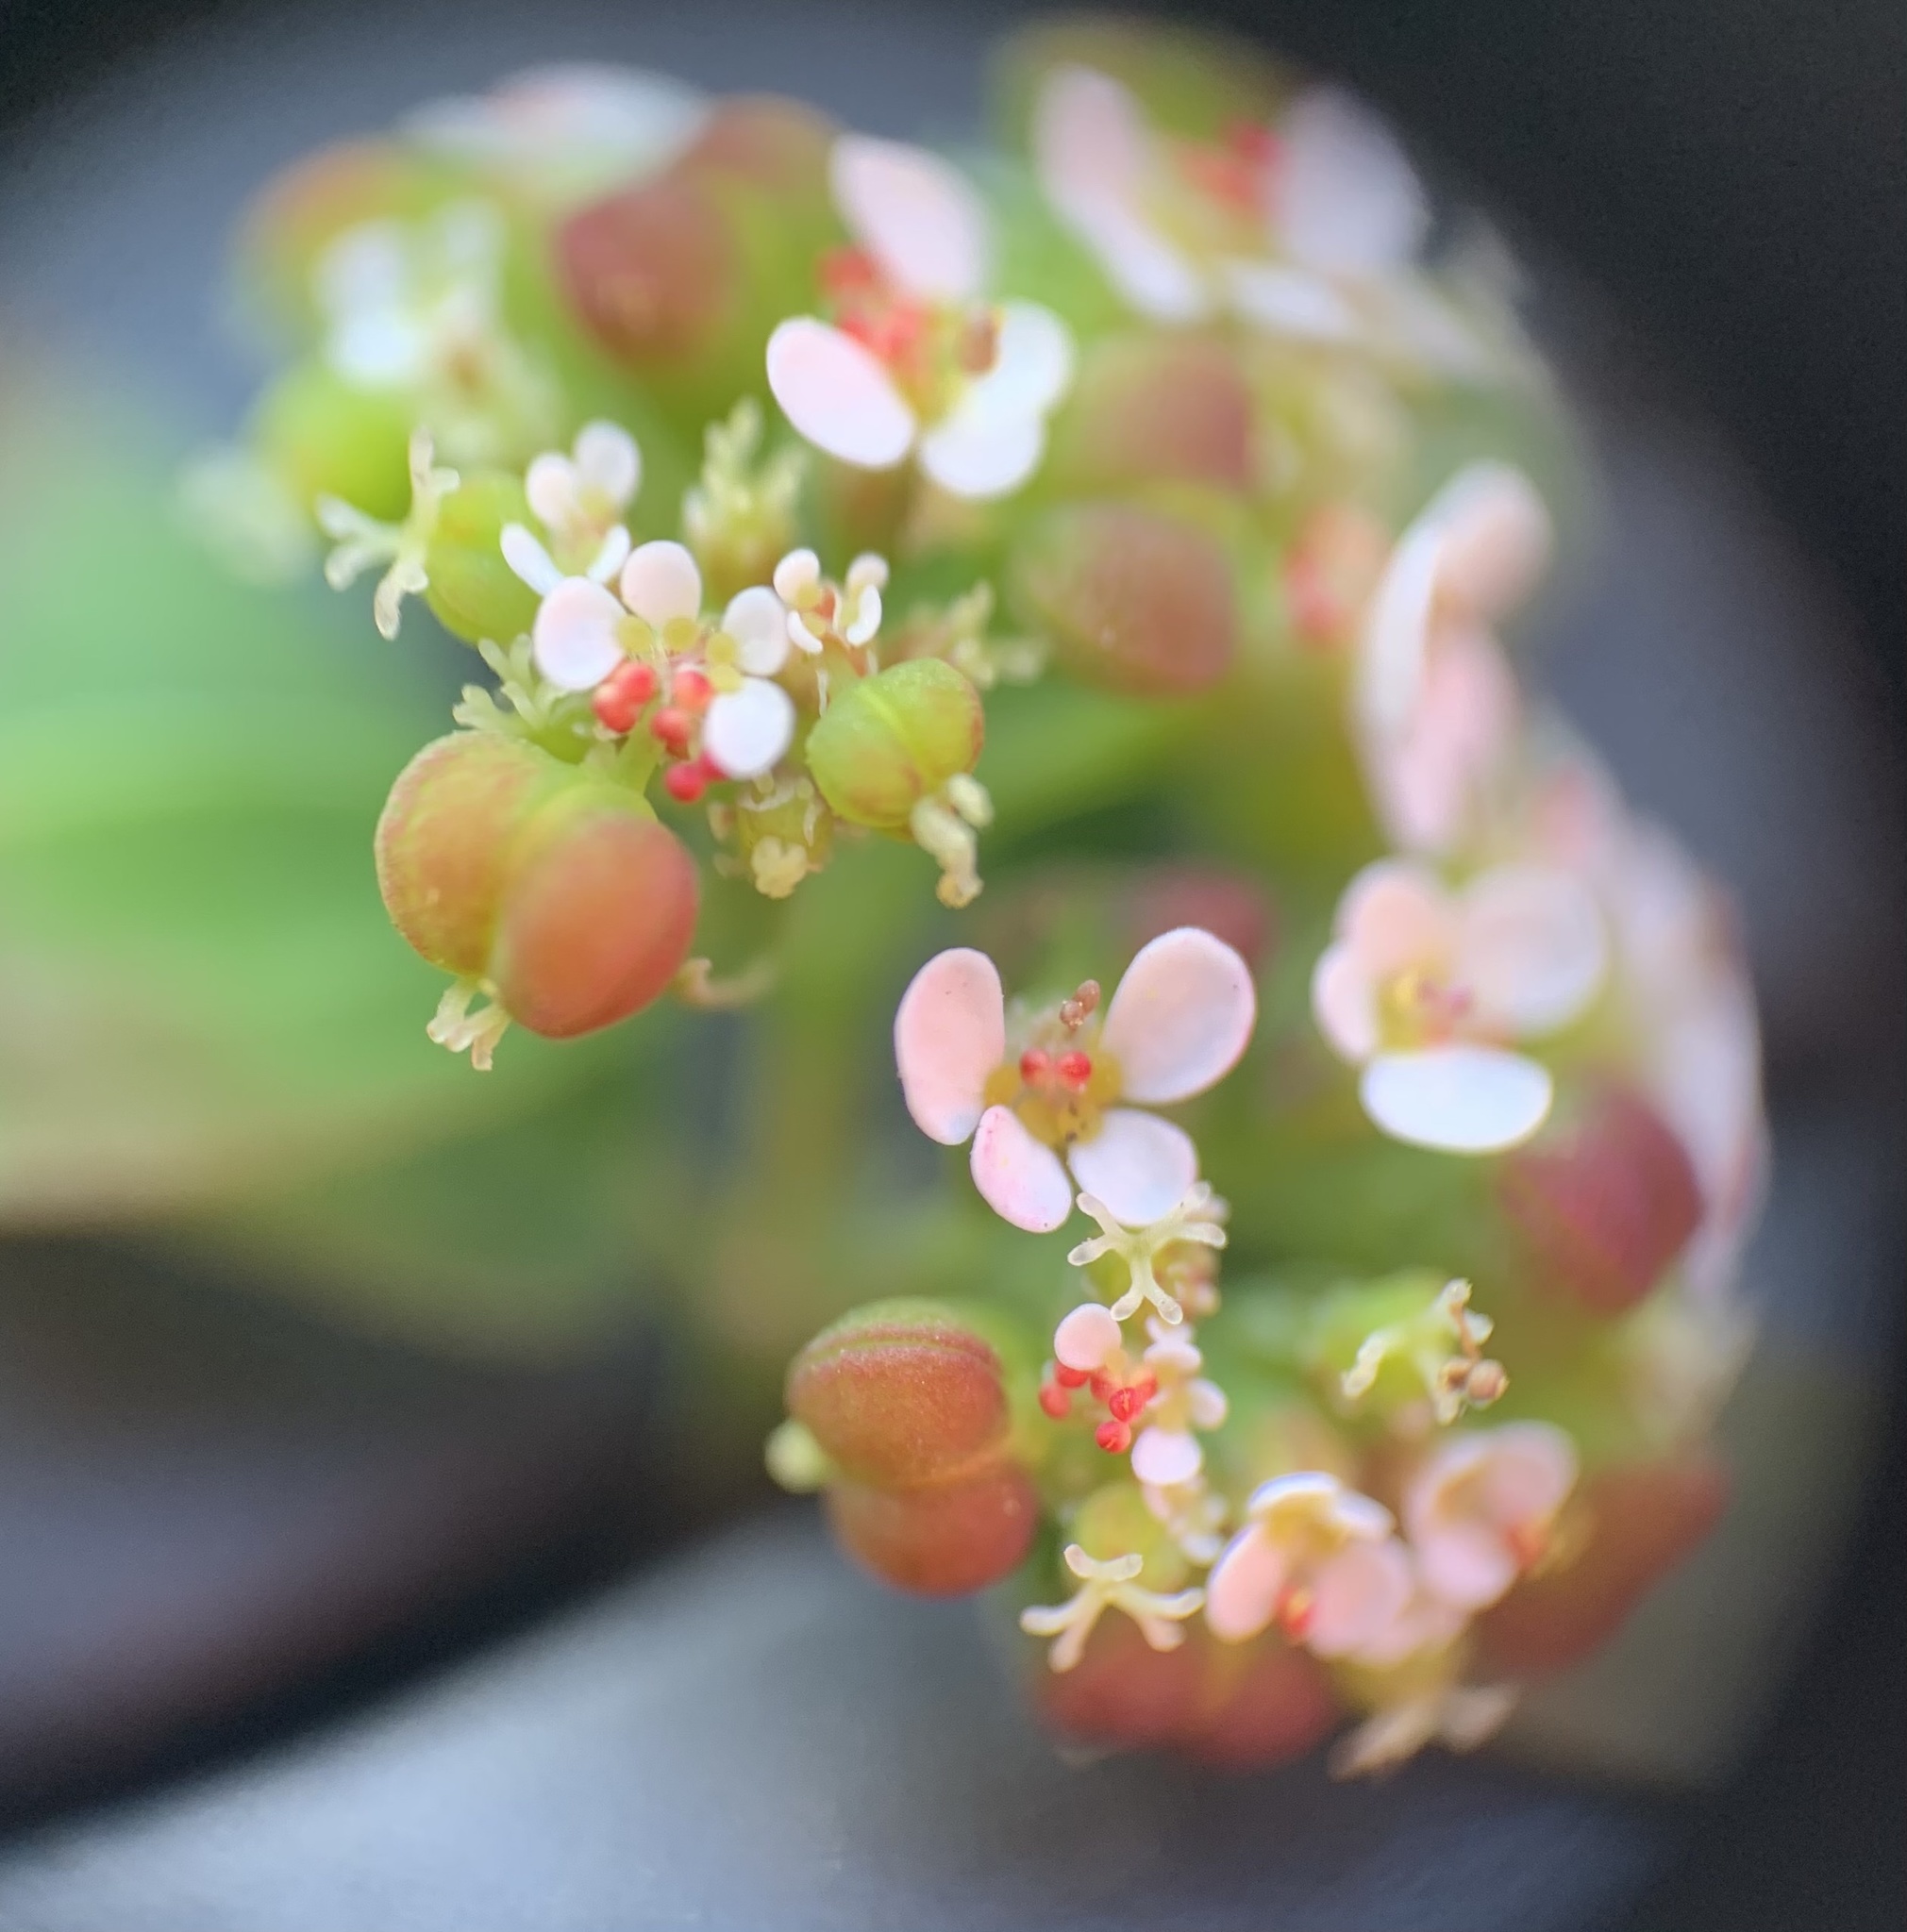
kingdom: Plantae
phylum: Tracheophyta
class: Magnoliopsida
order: Malpighiales
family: Euphorbiaceae
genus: Euphorbia
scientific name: Euphorbia hypericifolia
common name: Graceful sandmat
